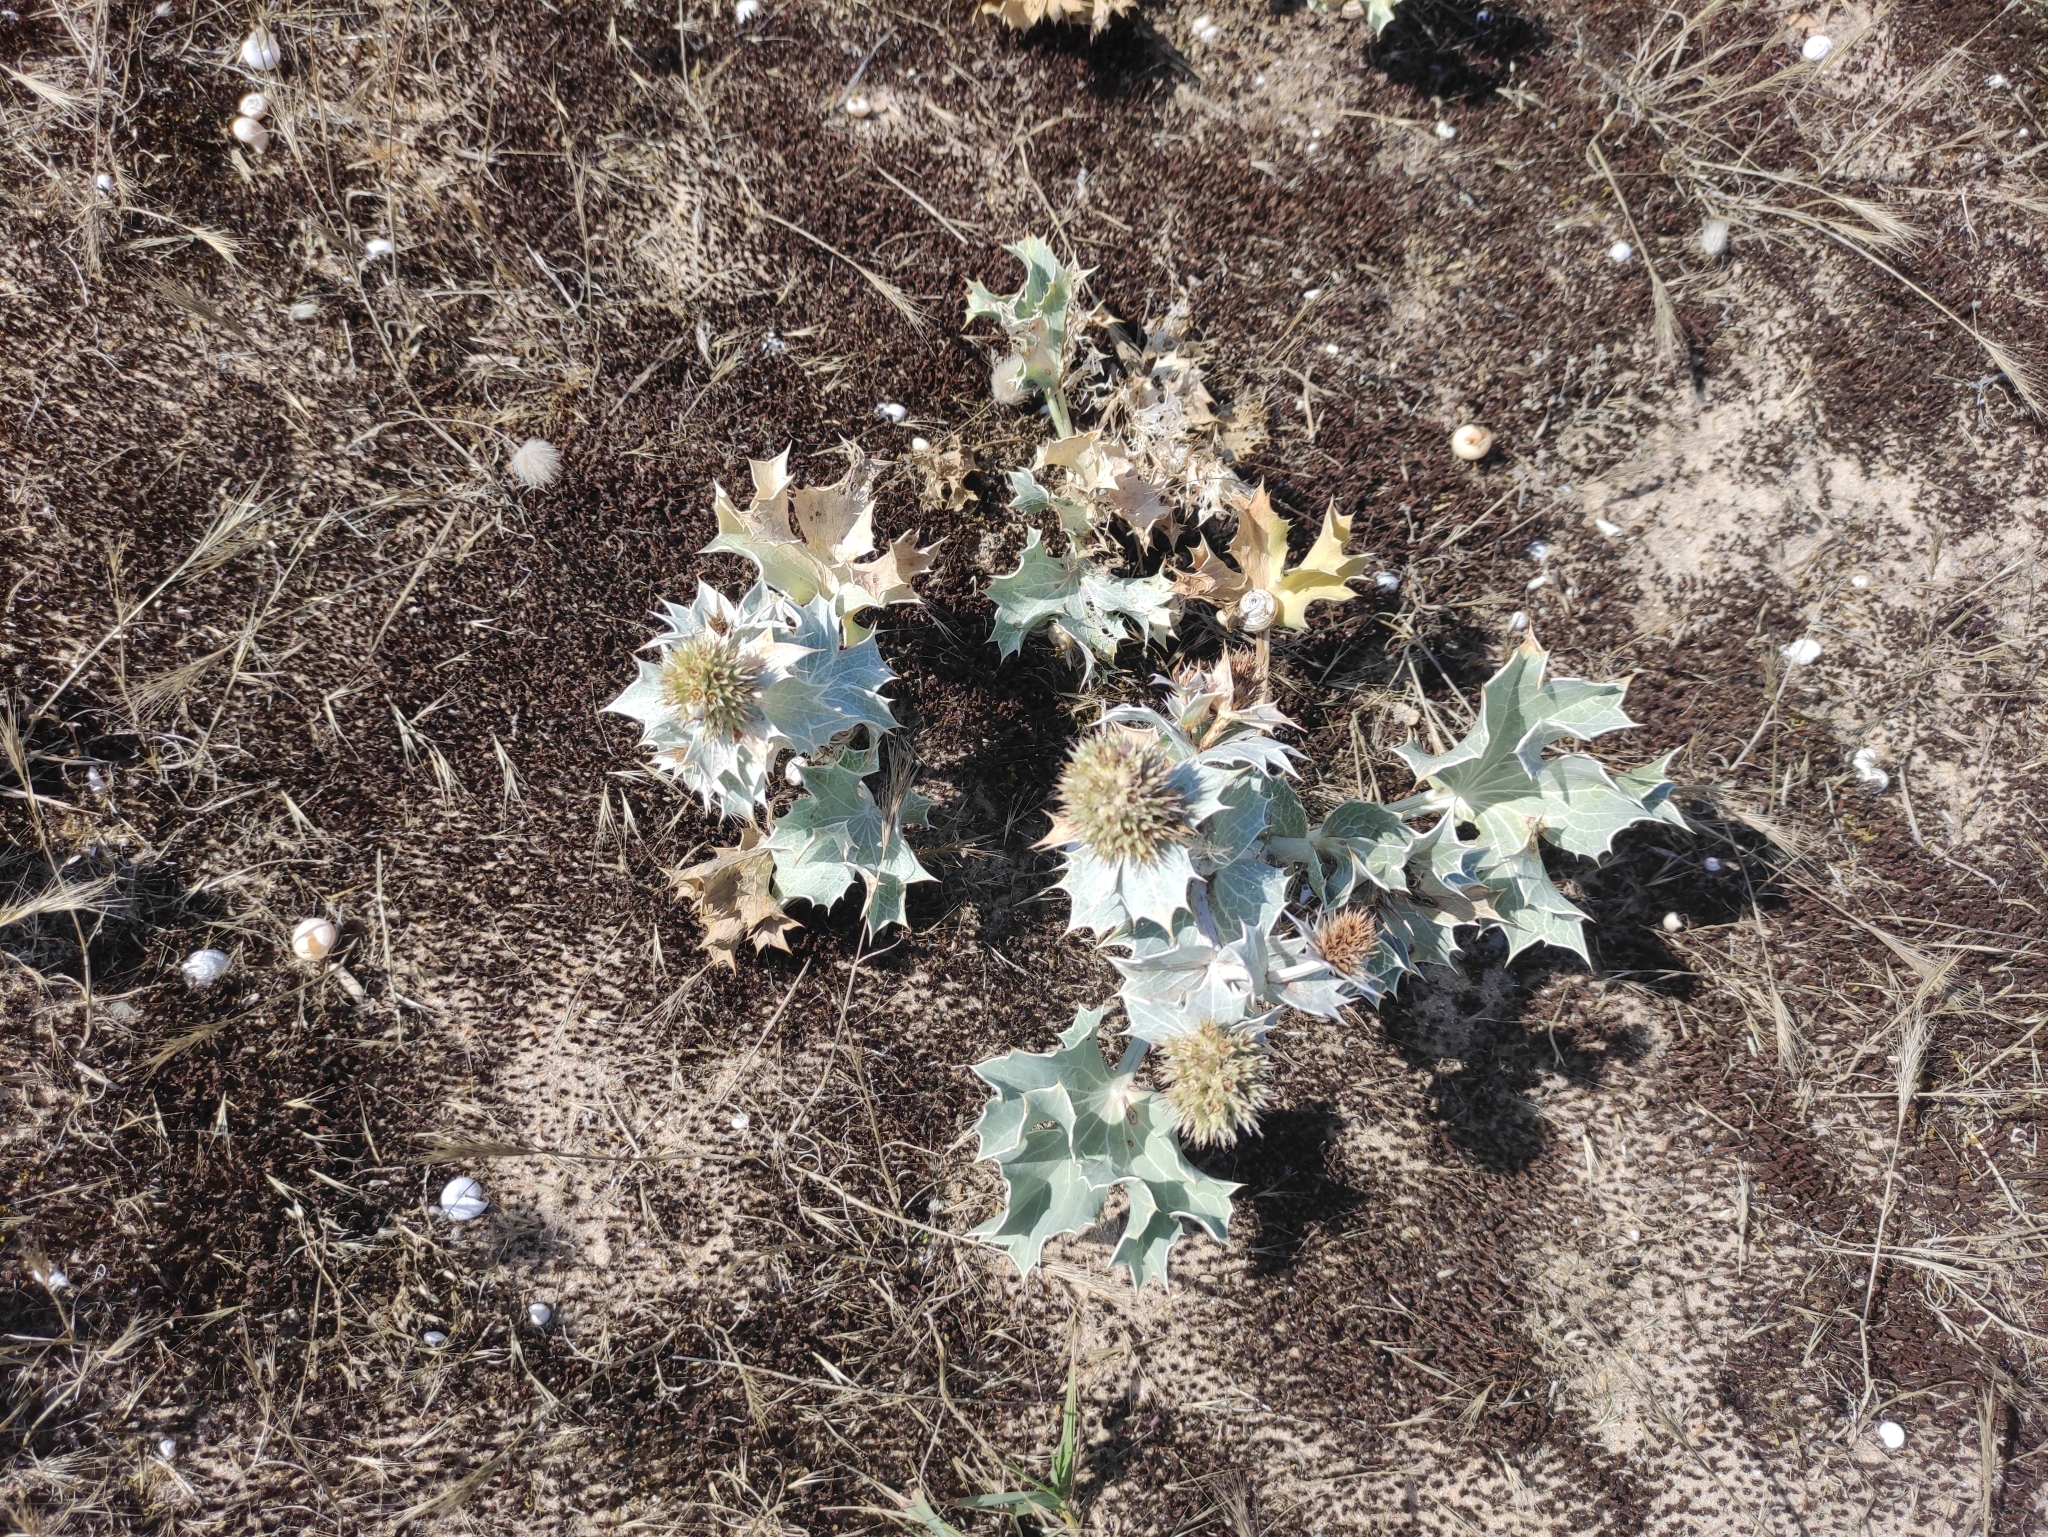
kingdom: Plantae
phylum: Tracheophyta
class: Magnoliopsida
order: Apiales
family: Apiaceae
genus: Eryngium
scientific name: Eryngium maritimum
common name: Sea-holly
